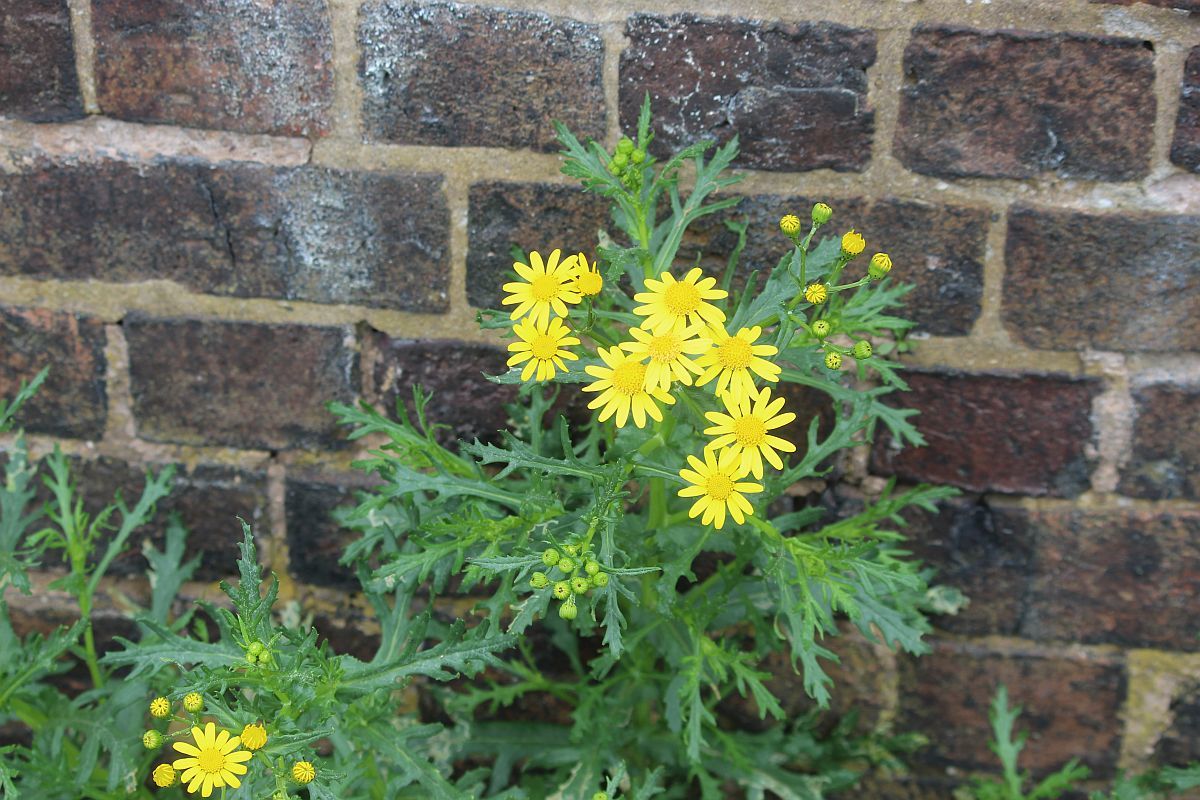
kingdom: Plantae
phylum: Tracheophyta
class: Magnoliopsida
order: Asterales
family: Asteraceae
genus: Senecio
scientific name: Senecio squalidus
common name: Oxford ragwort
